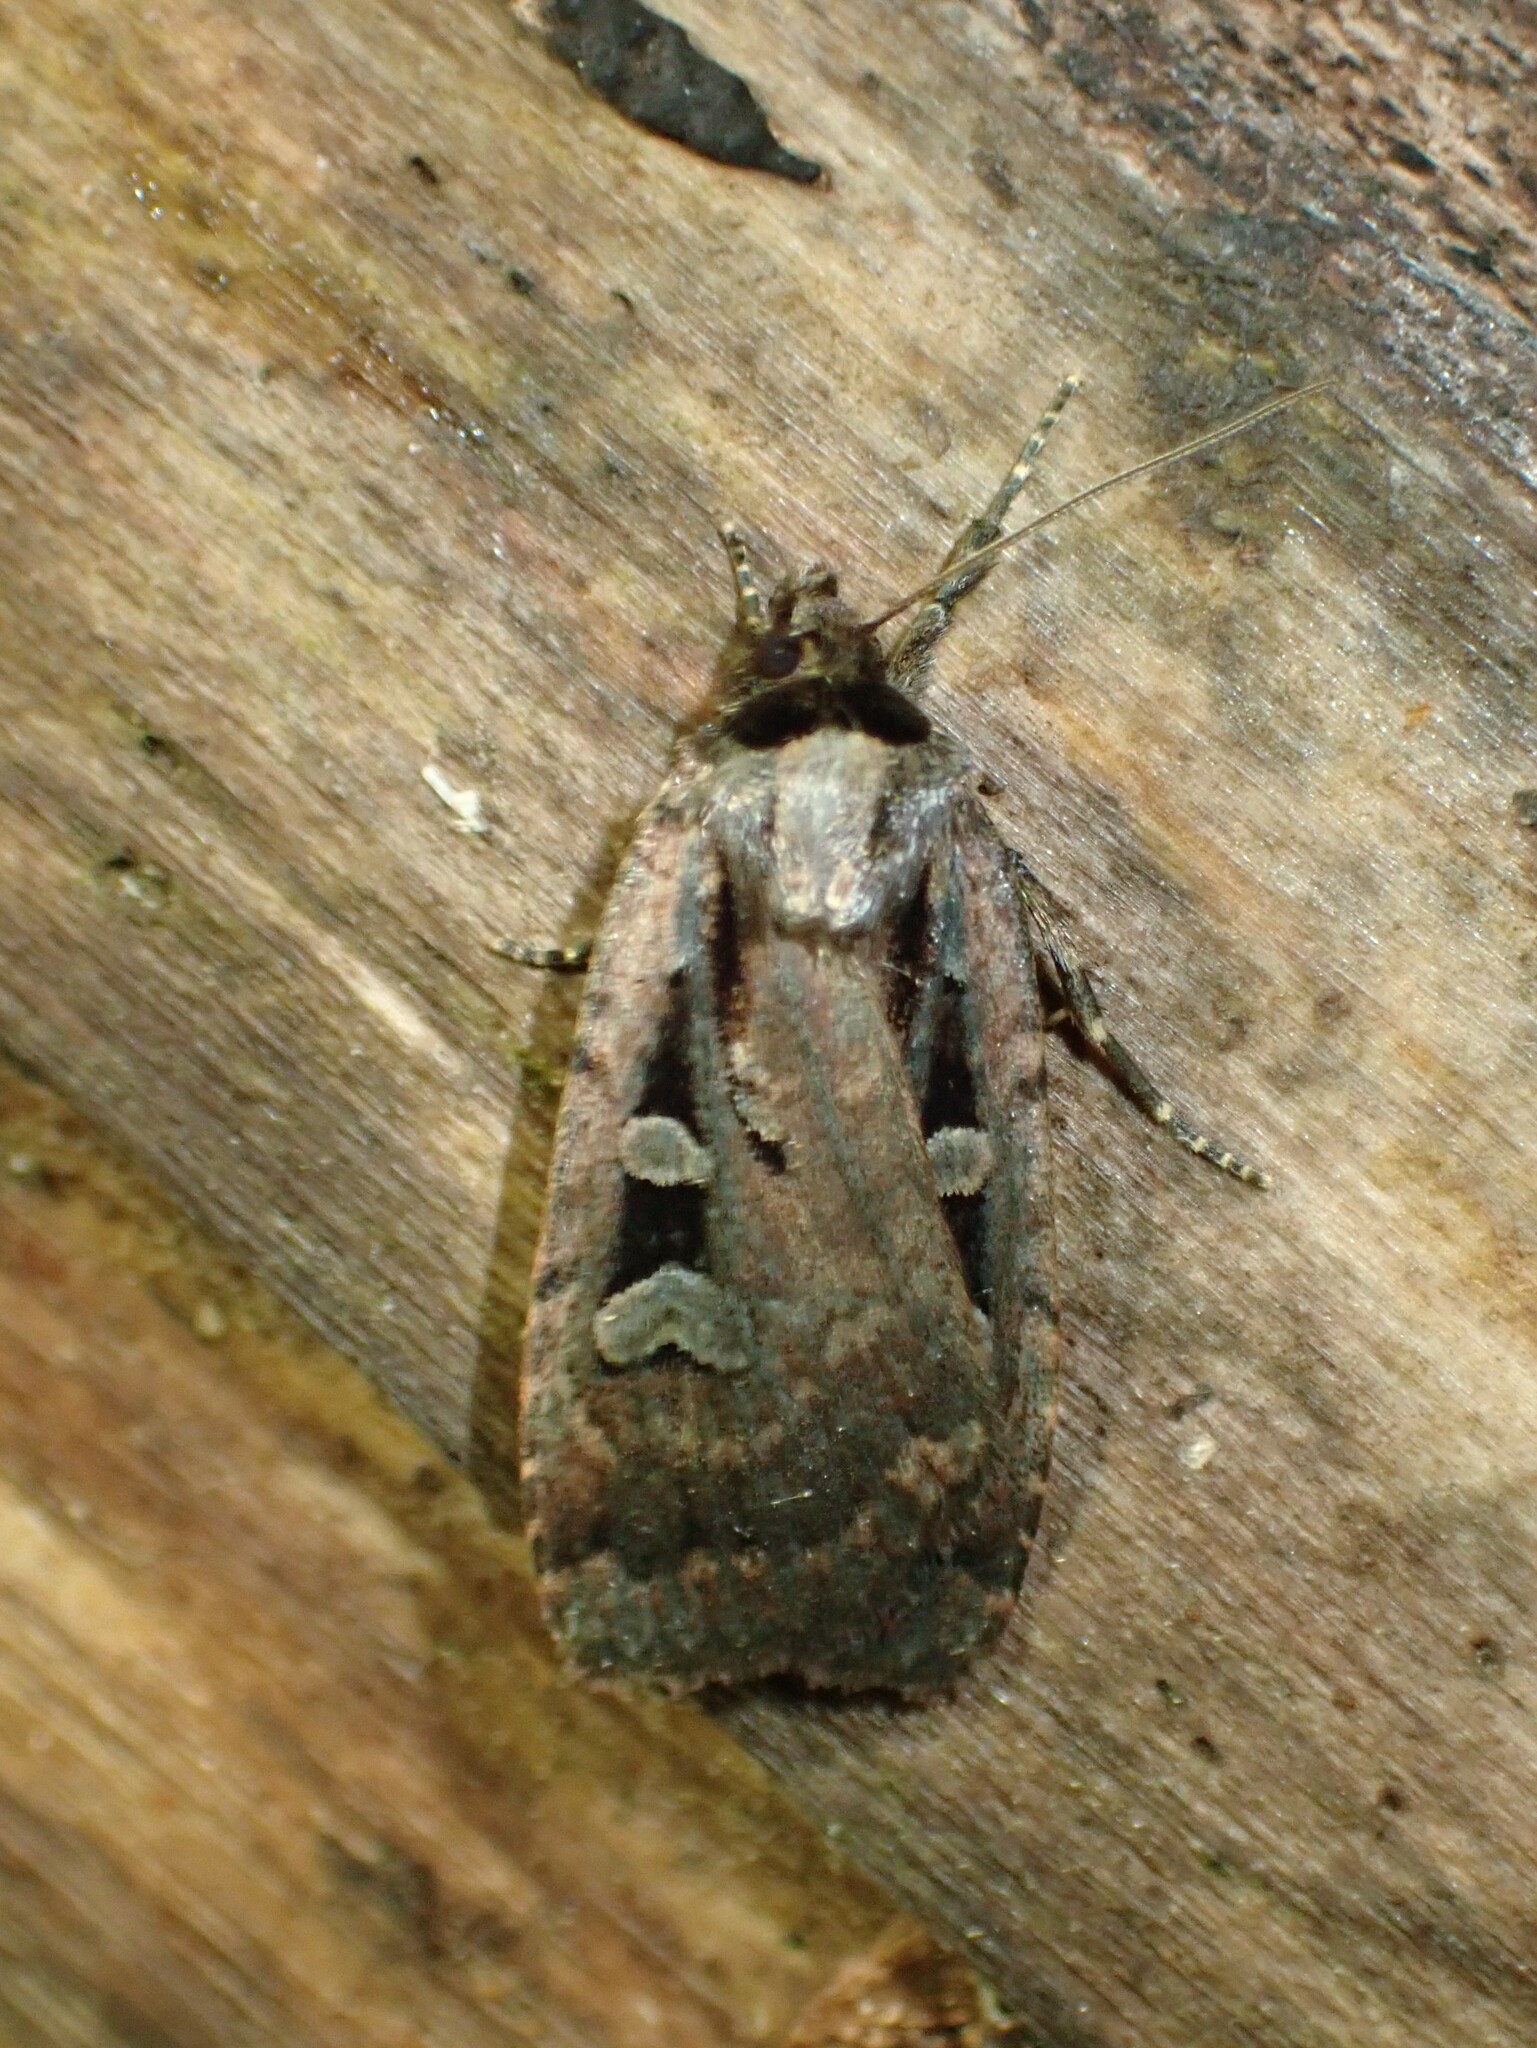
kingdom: Animalia
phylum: Arthropoda
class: Insecta
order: Lepidoptera
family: Noctuidae
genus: Eueretagrotis
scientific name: Eueretagrotis perattentus
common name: Two-spot dart moth
